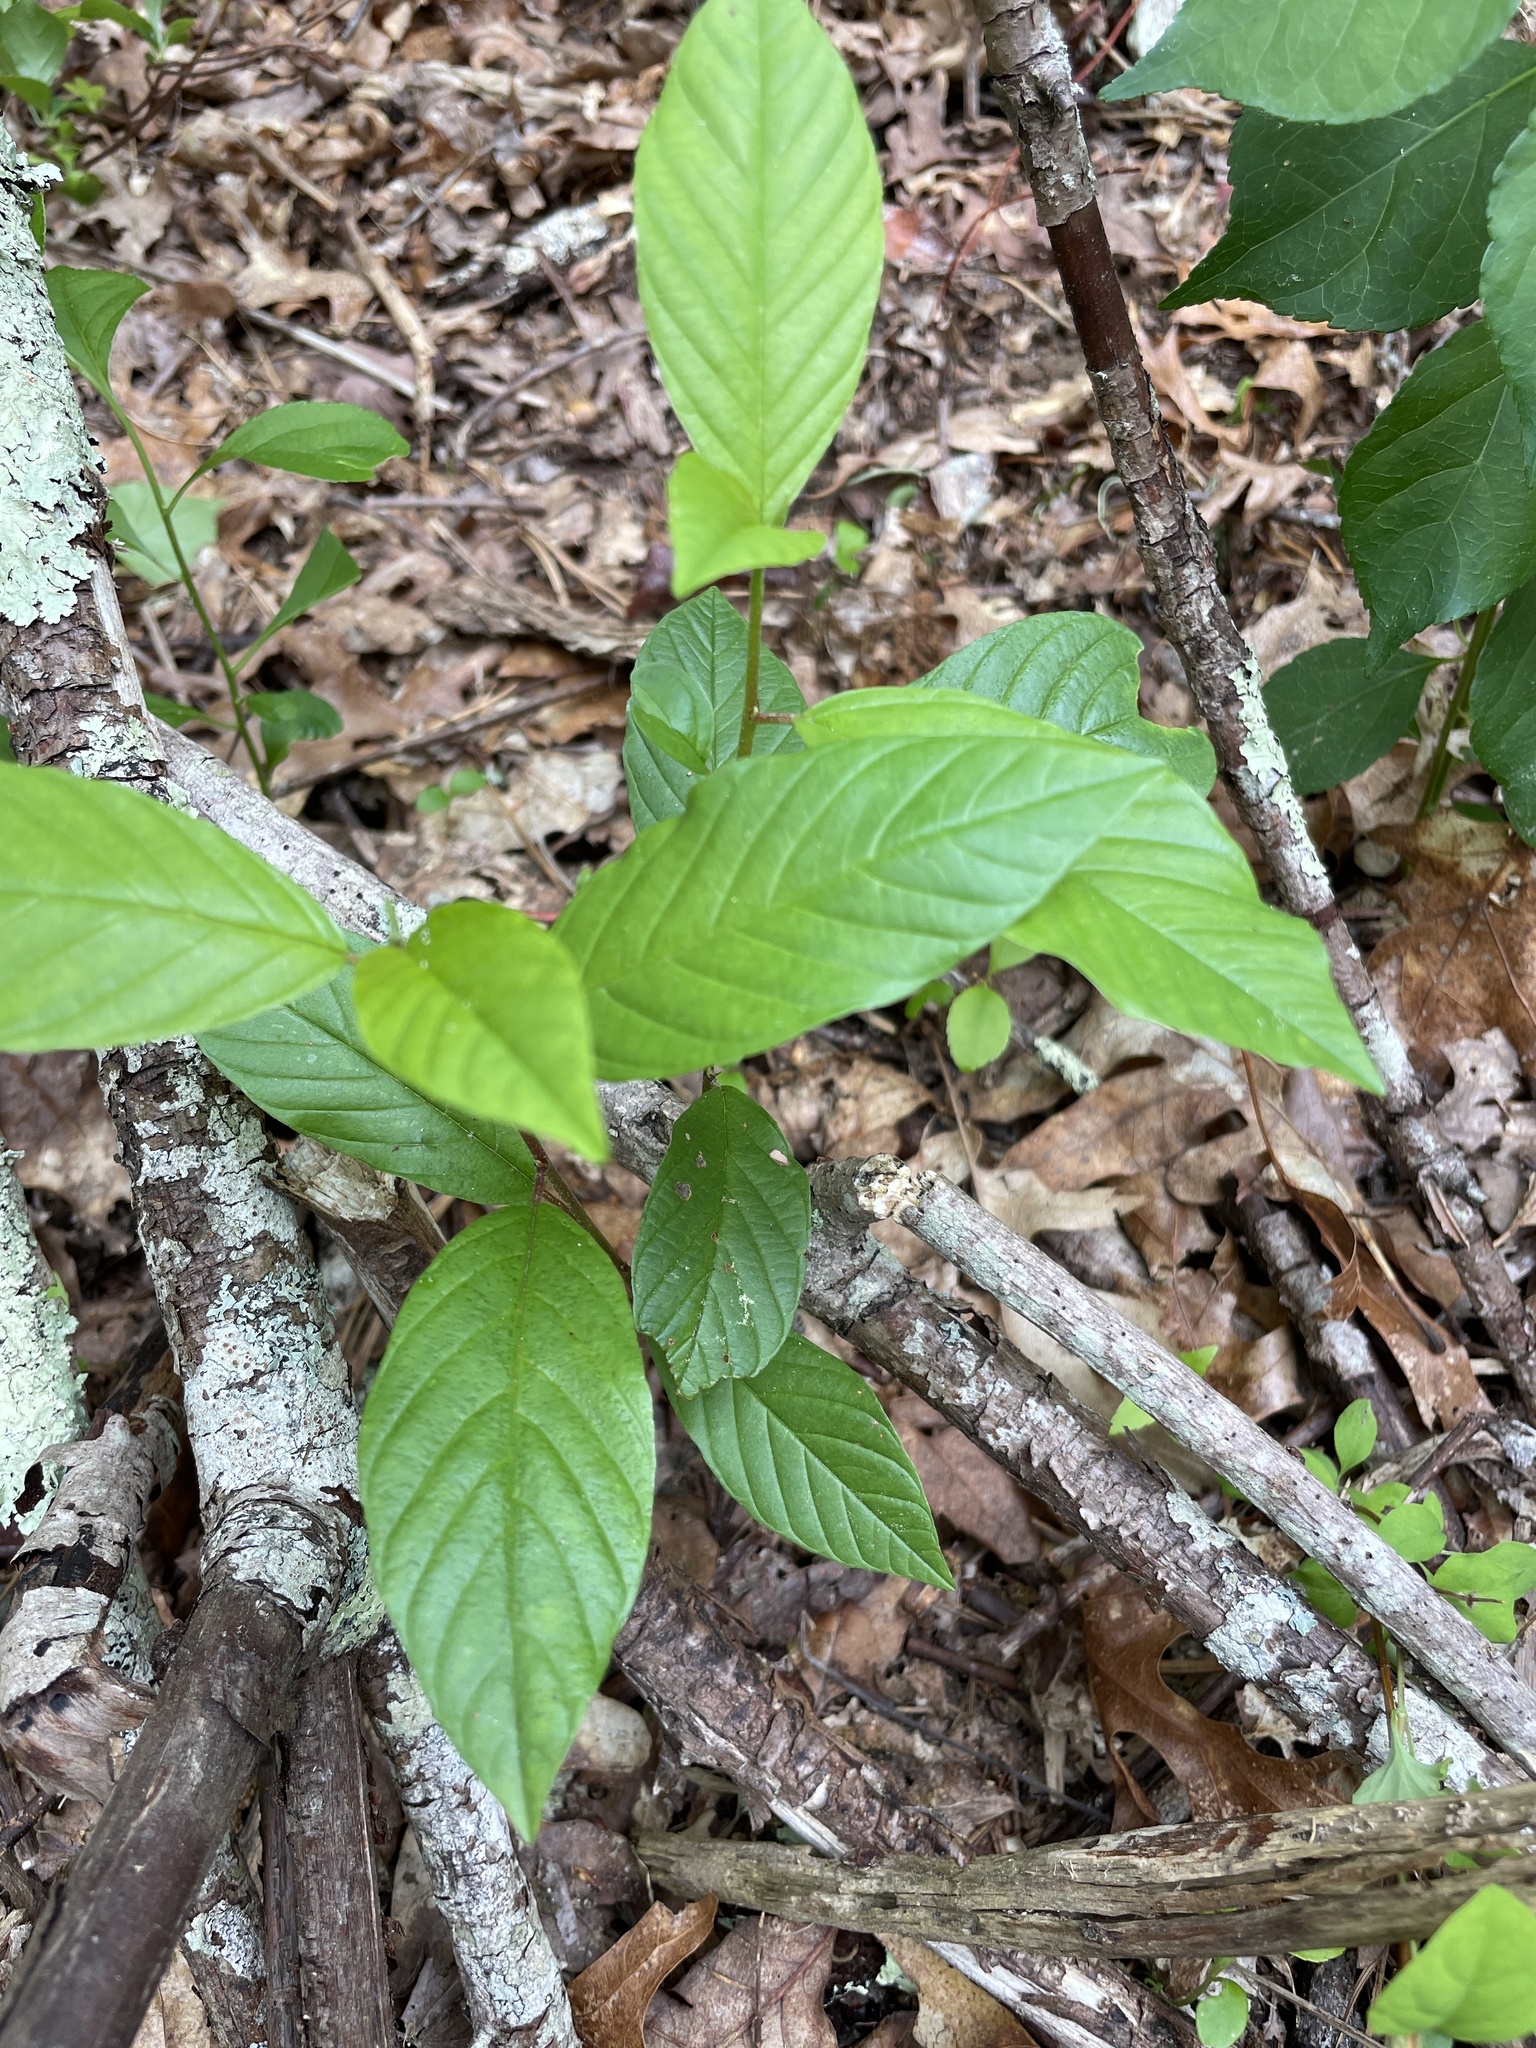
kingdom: Plantae
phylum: Tracheophyta
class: Magnoliopsida
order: Rosales
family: Rhamnaceae
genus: Frangula
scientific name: Frangula alnus
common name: Alder buckthorn
